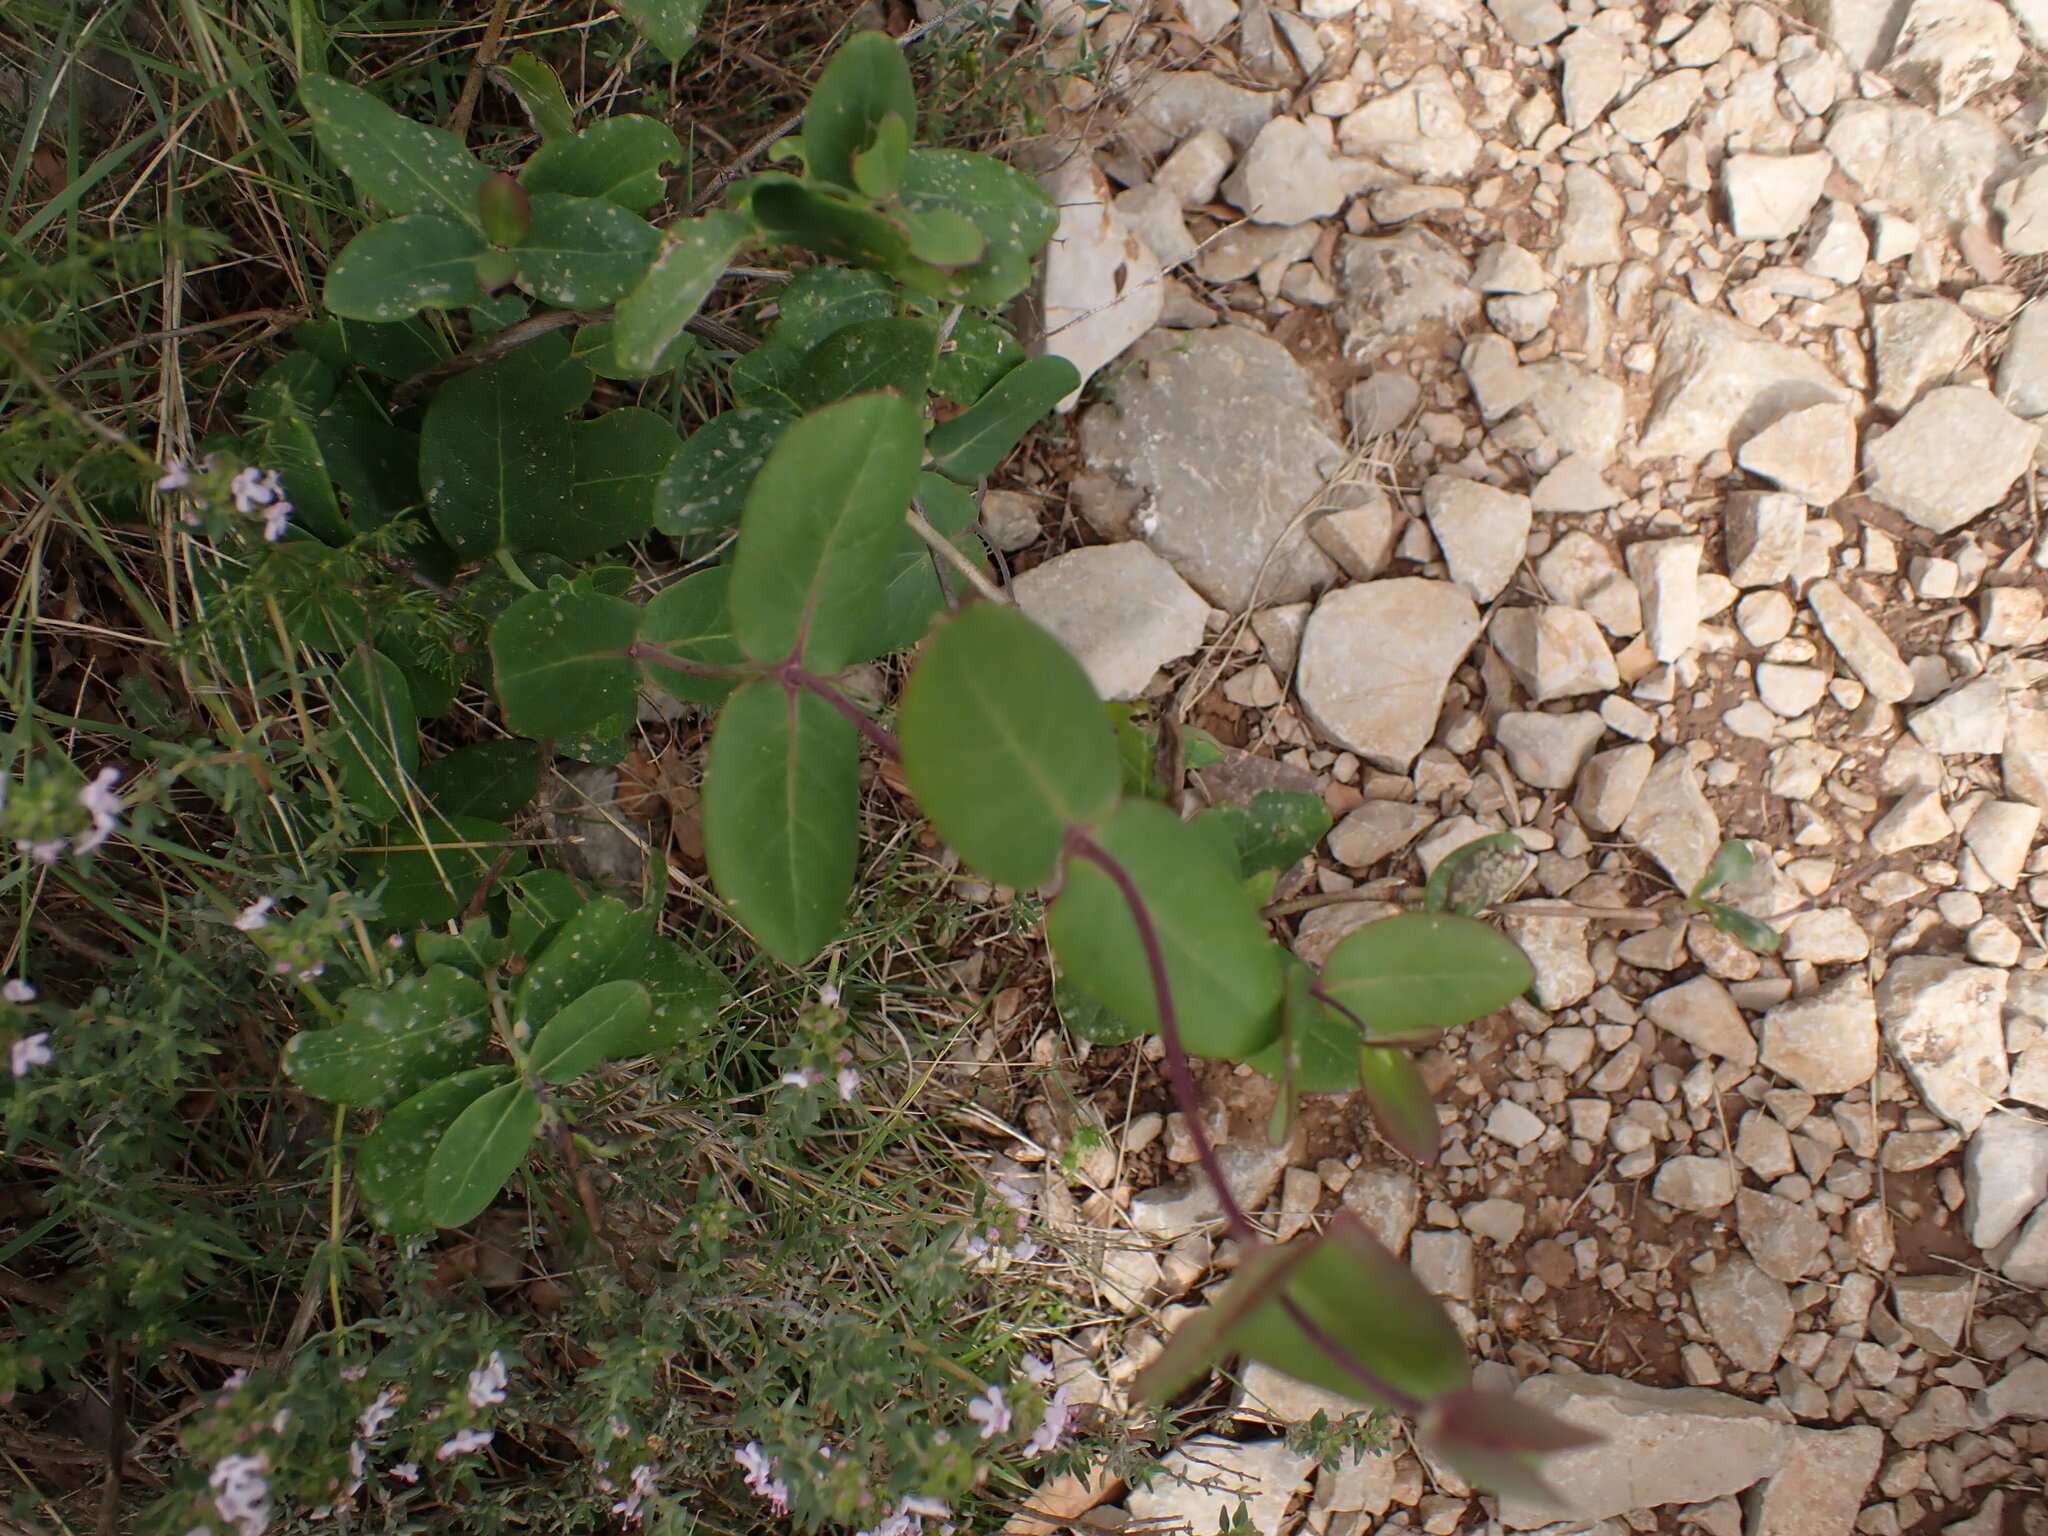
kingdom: Plantae
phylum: Tracheophyta
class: Magnoliopsida
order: Dipsacales
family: Caprifoliaceae
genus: Lonicera
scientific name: Lonicera implexa
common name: Minorca honeysuckle
